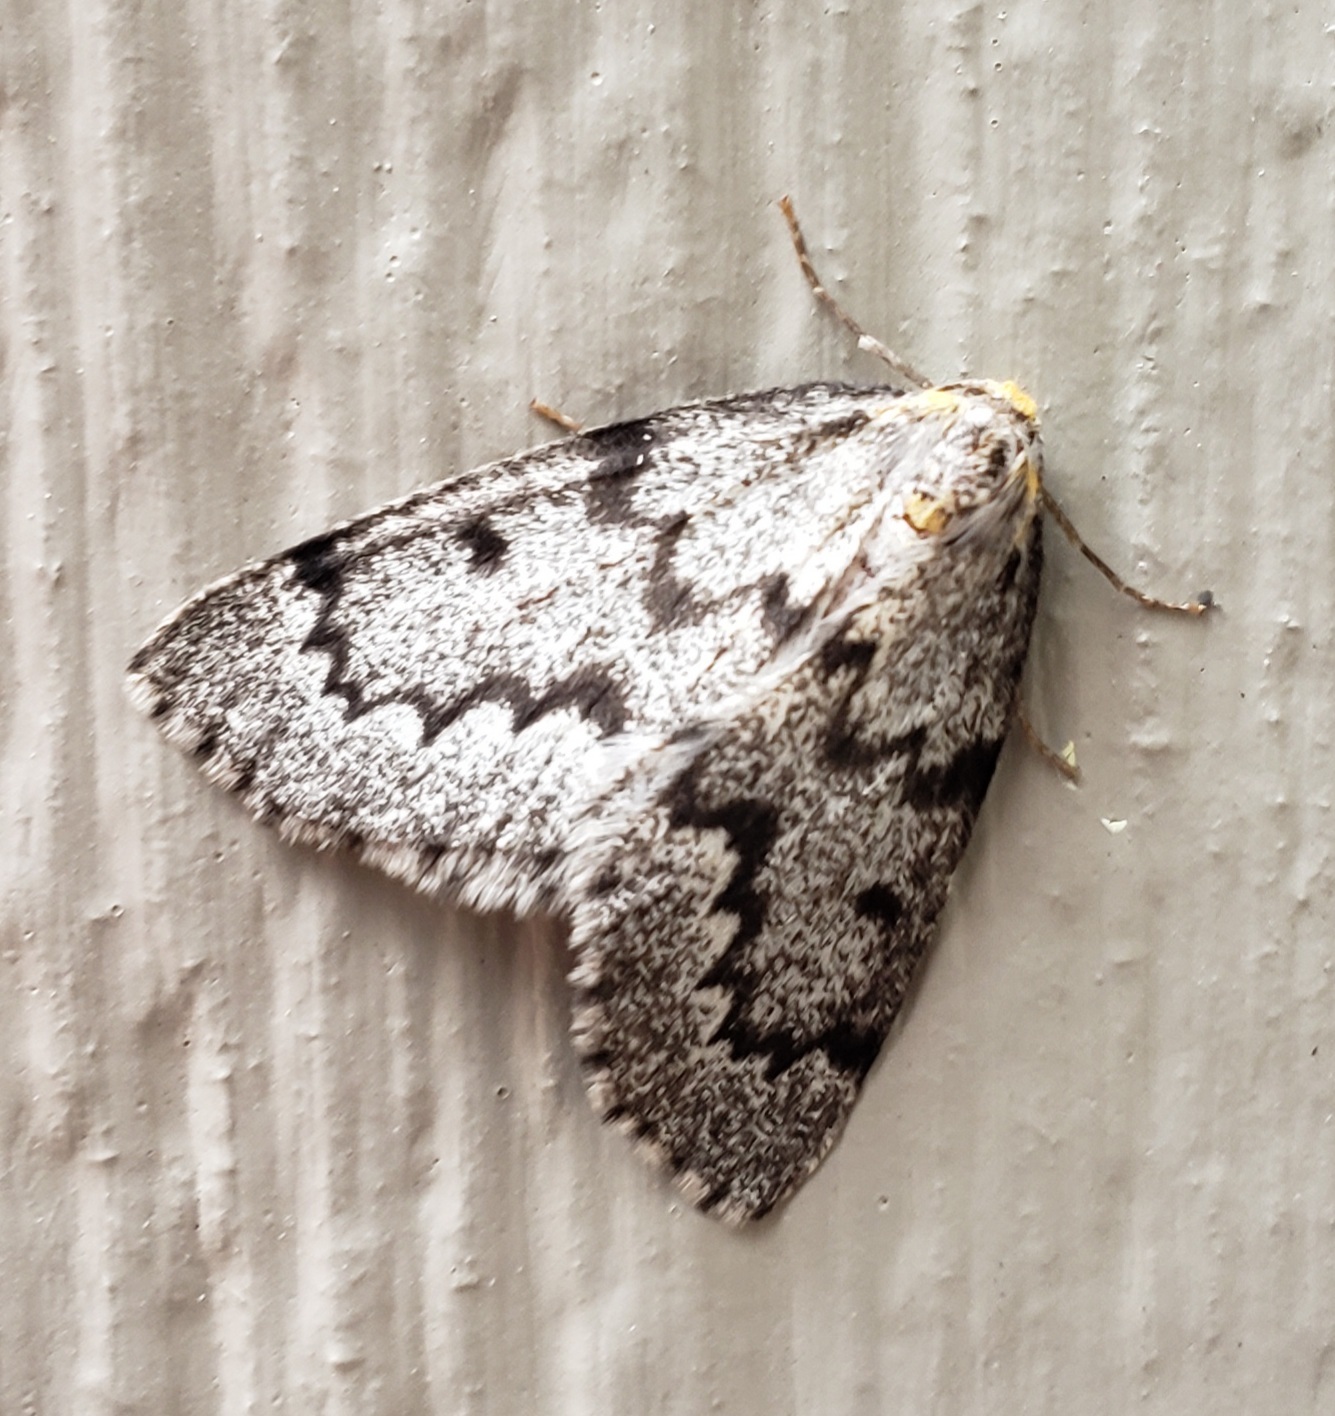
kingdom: Animalia
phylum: Arthropoda
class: Insecta
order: Lepidoptera
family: Geometridae
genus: Nepytia
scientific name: Nepytia canosaria
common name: False hemlock looper
